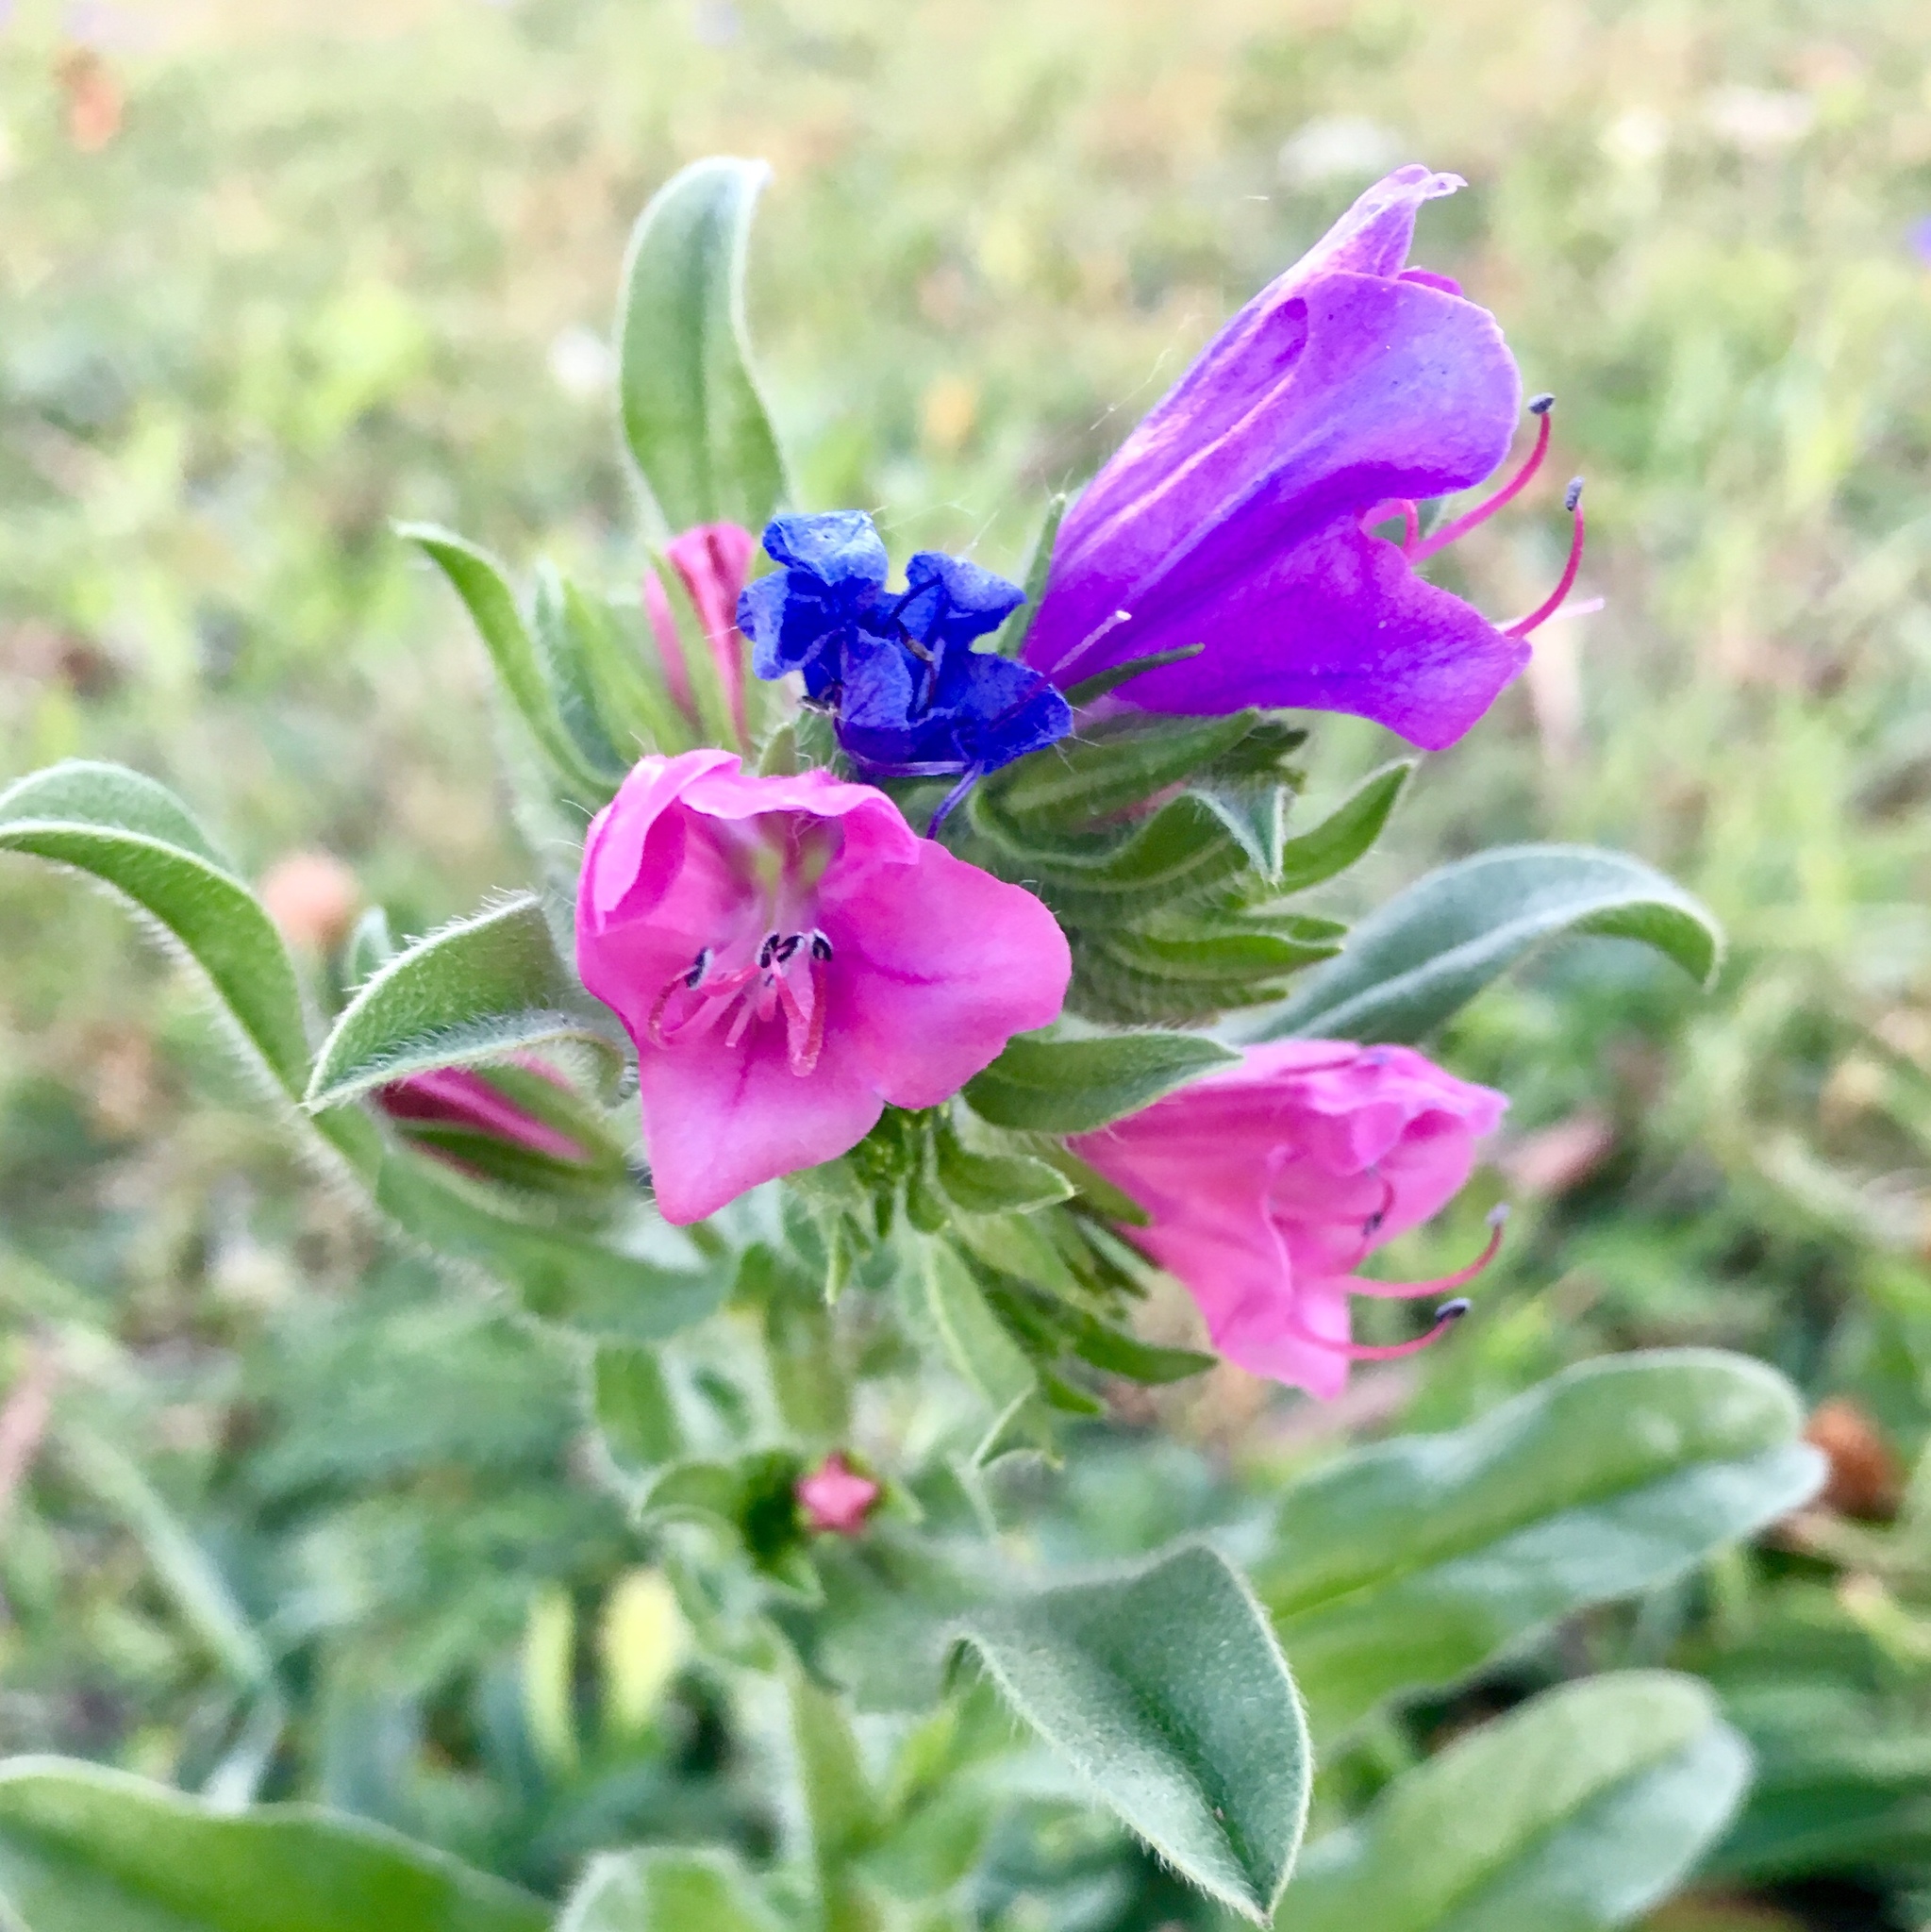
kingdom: Plantae
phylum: Tracheophyta
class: Magnoliopsida
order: Boraginales
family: Boraginaceae
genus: Echium
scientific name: Echium vulgare
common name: Common viper's bugloss
